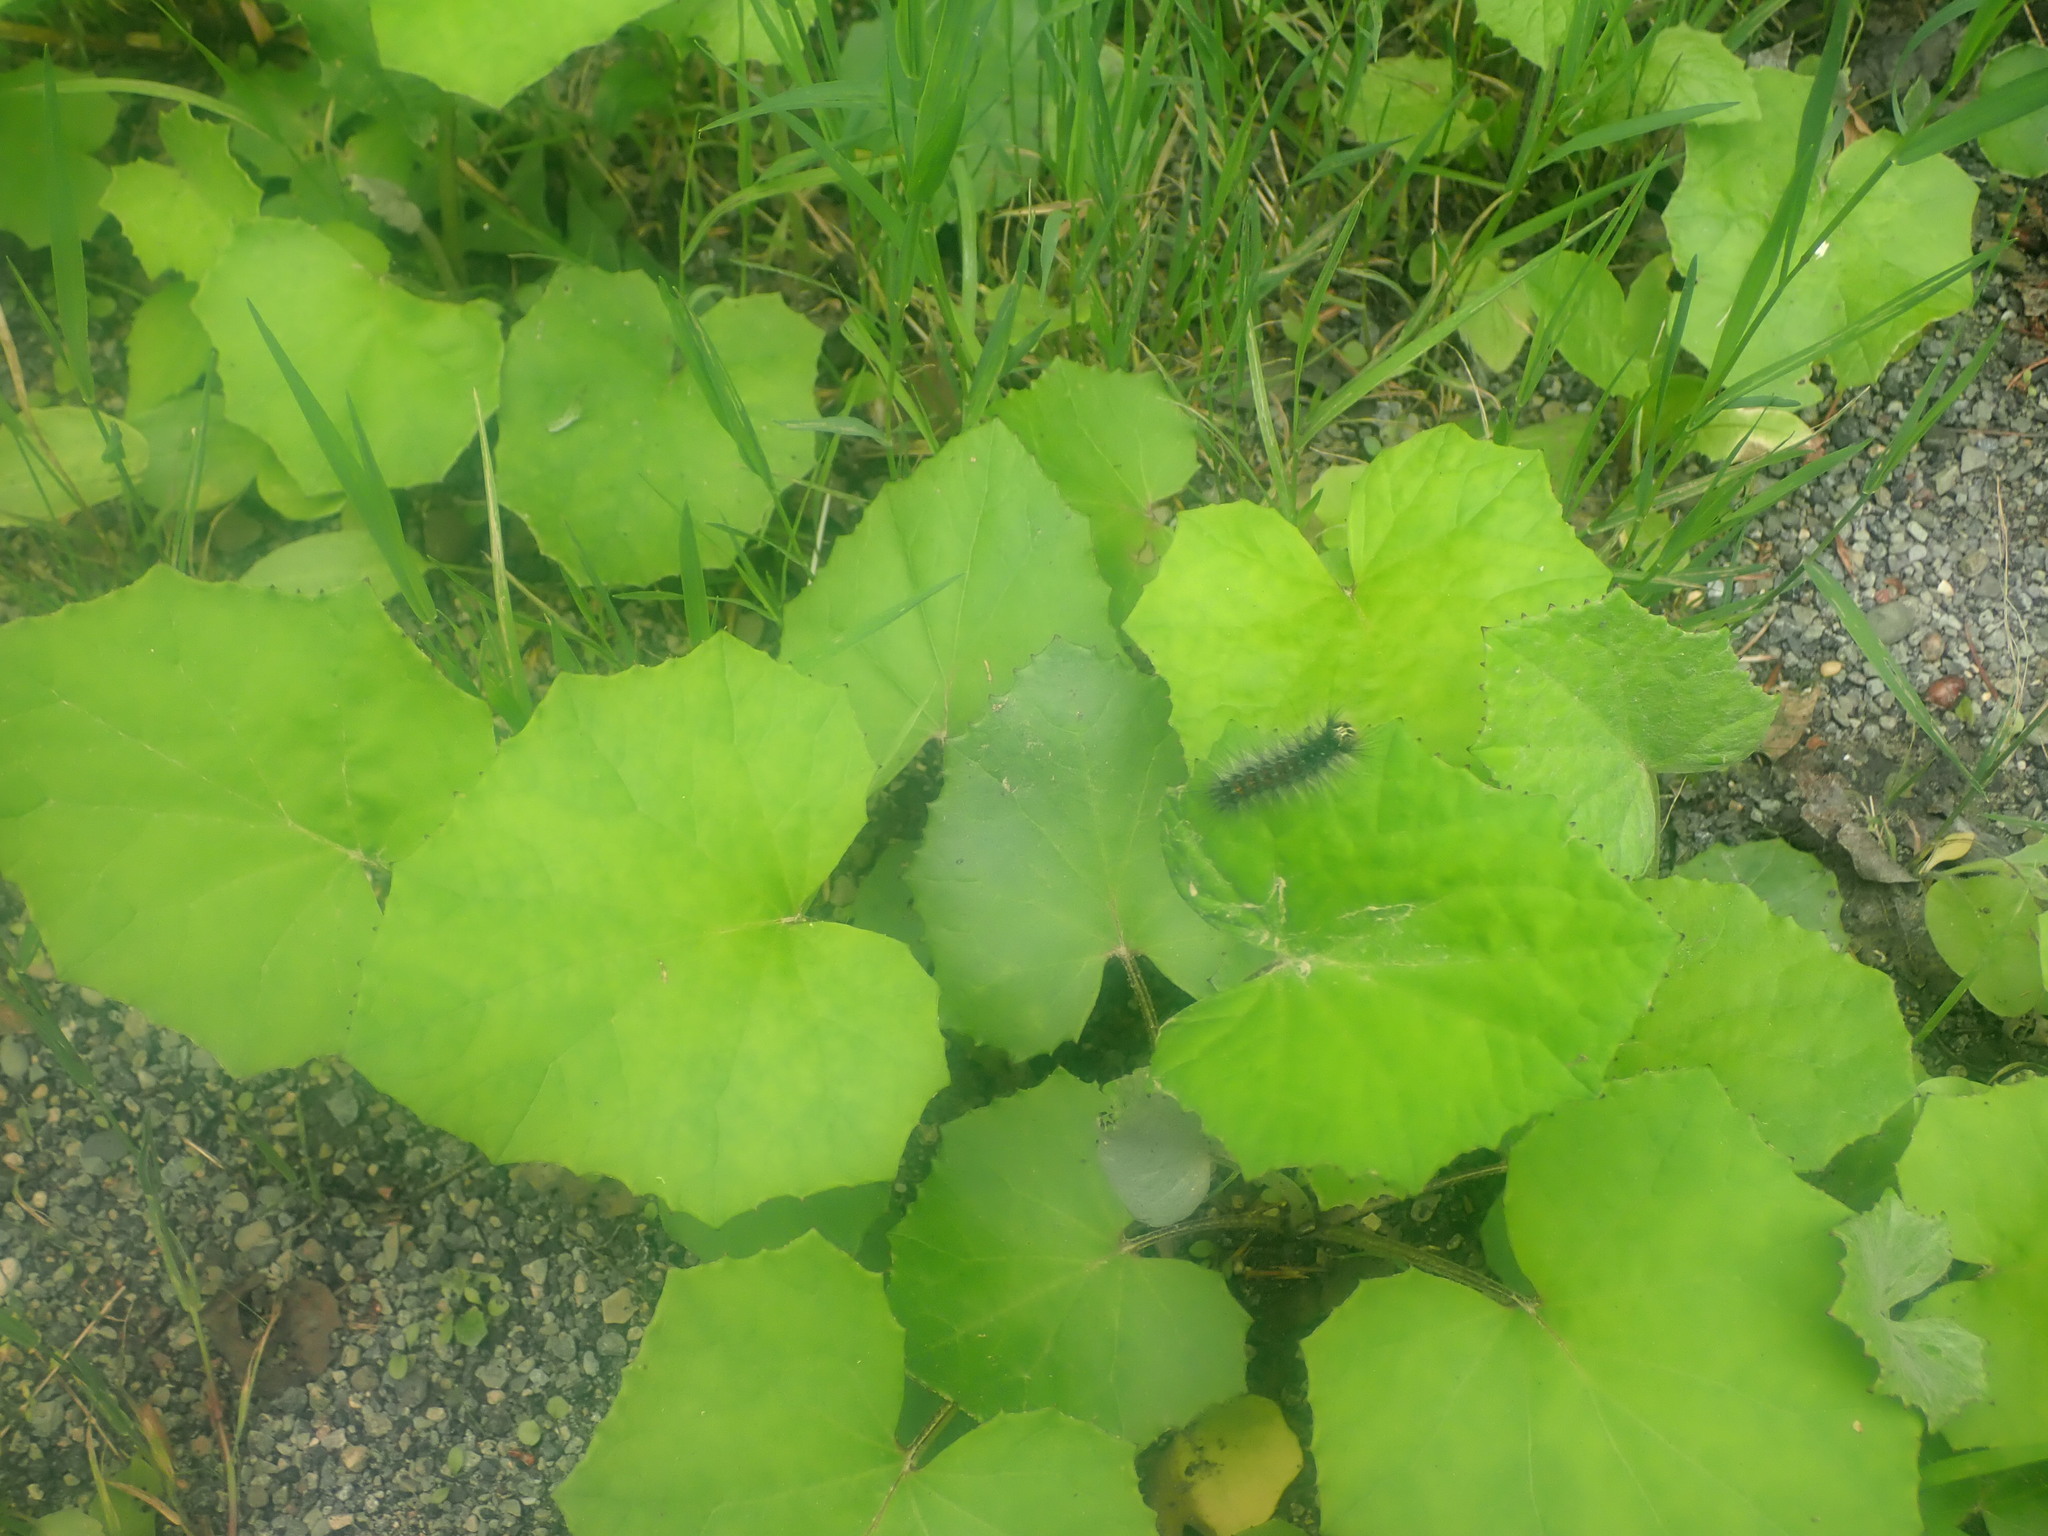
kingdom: Plantae
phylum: Tracheophyta
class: Magnoliopsida
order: Asterales
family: Asteraceae
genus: Tussilago
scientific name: Tussilago farfara
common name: Coltsfoot
